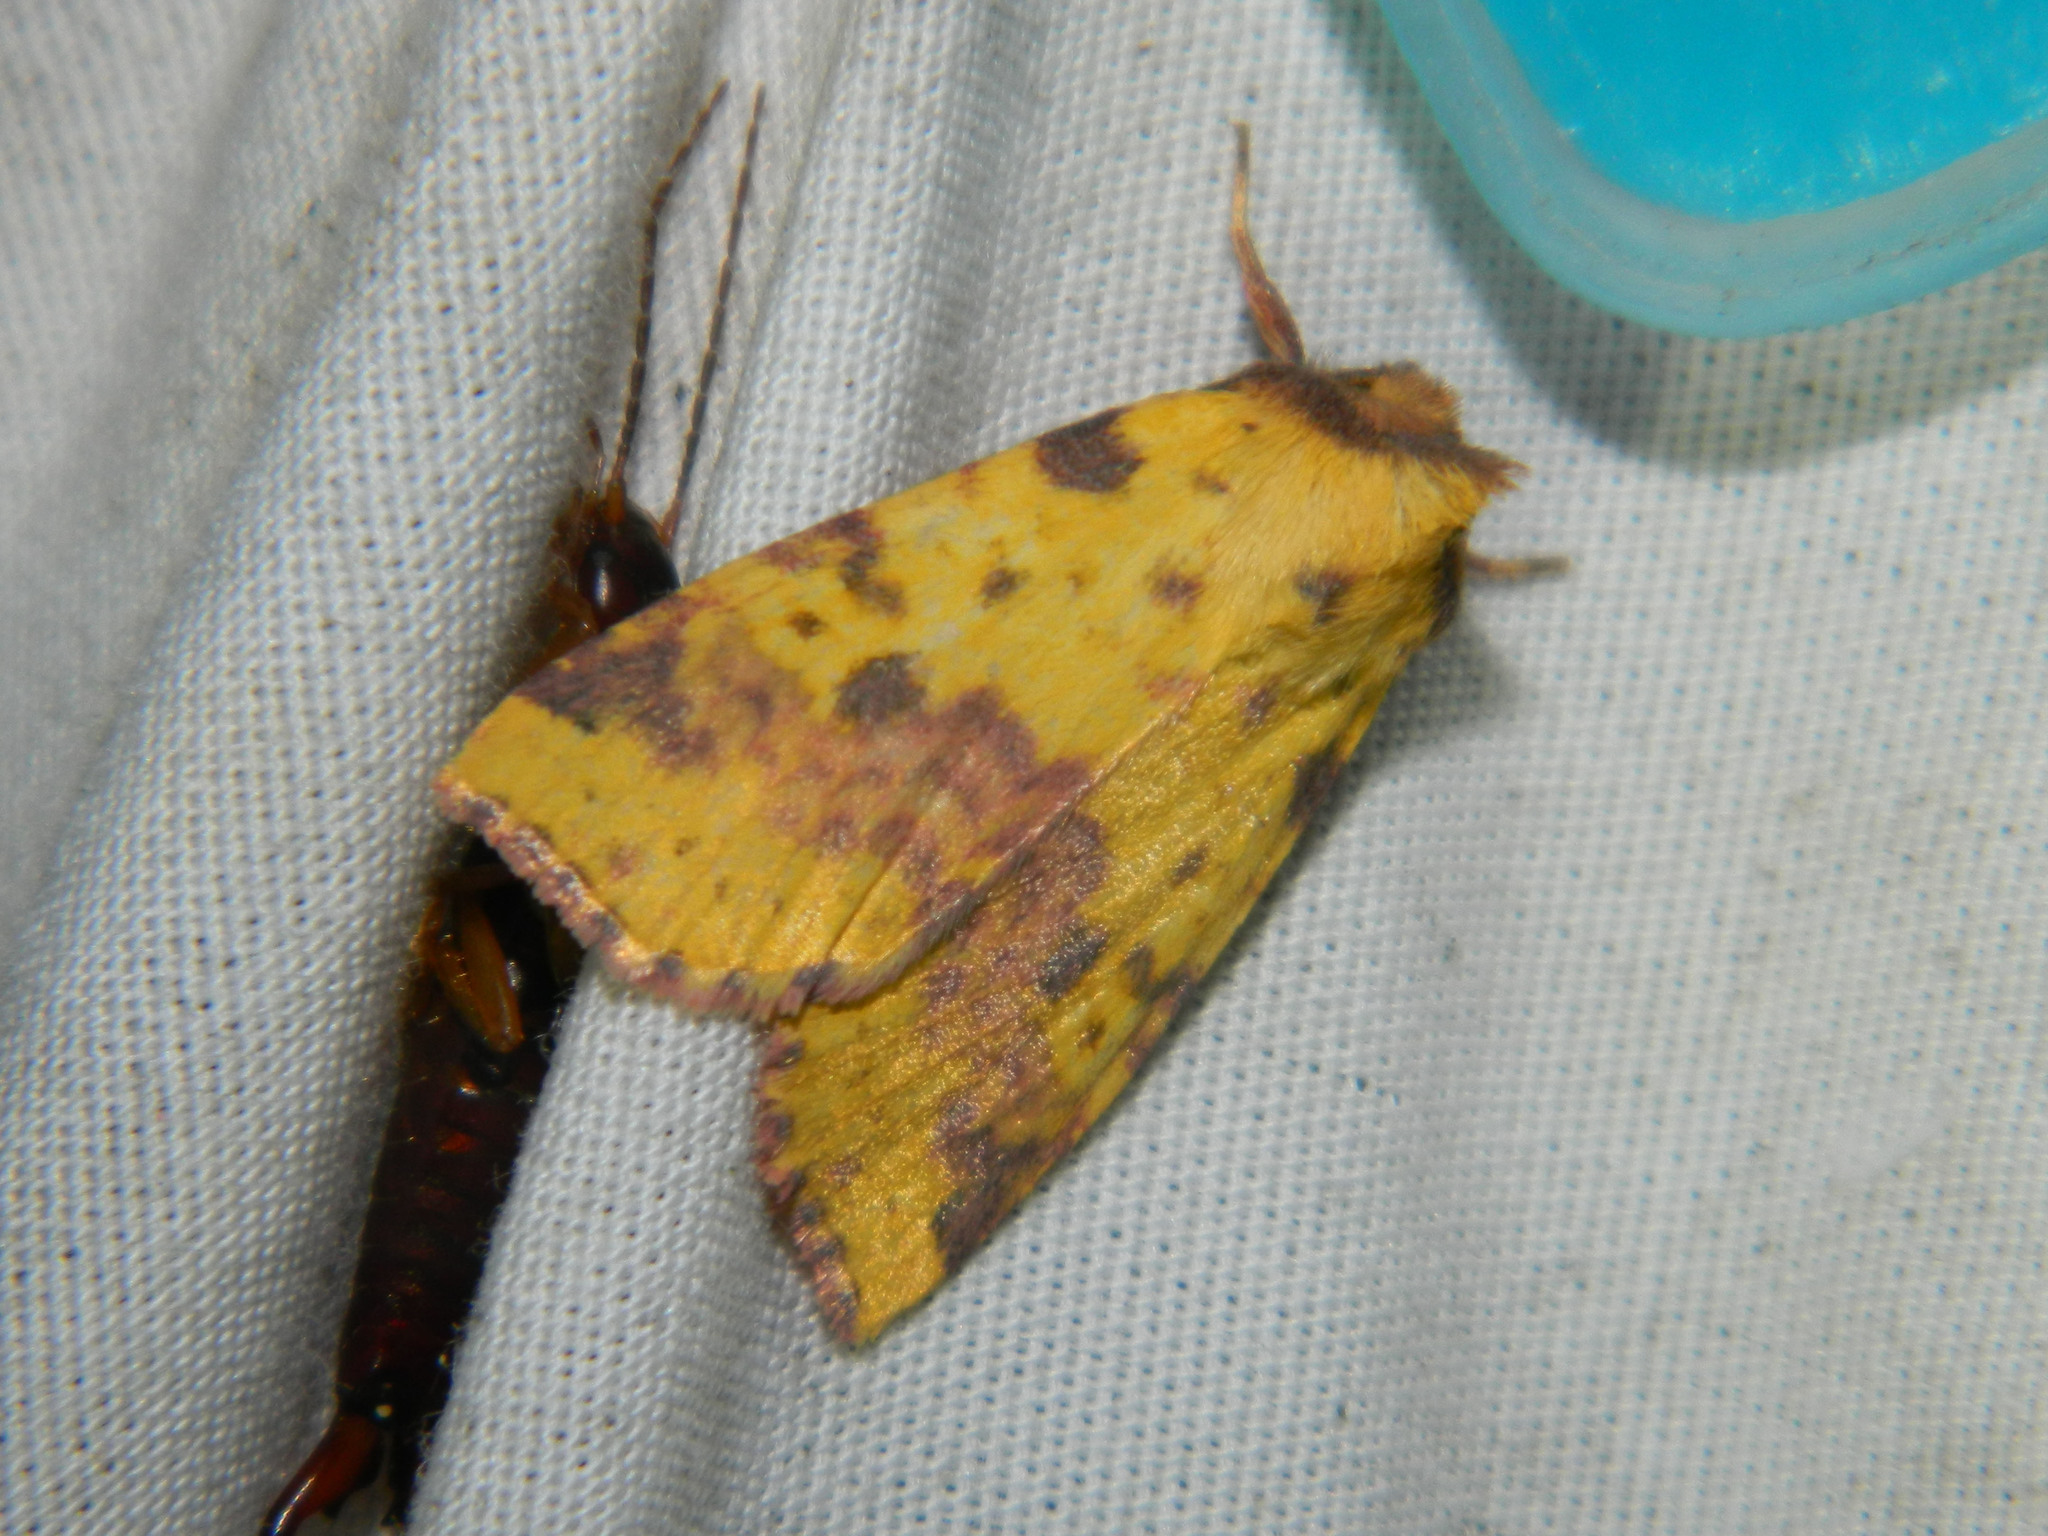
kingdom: Animalia
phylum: Arthropoda
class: Insecta
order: Lepidoptera
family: Noctuidae
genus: Xanthia
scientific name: Xanthia tatago
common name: Pink-banded sallow
